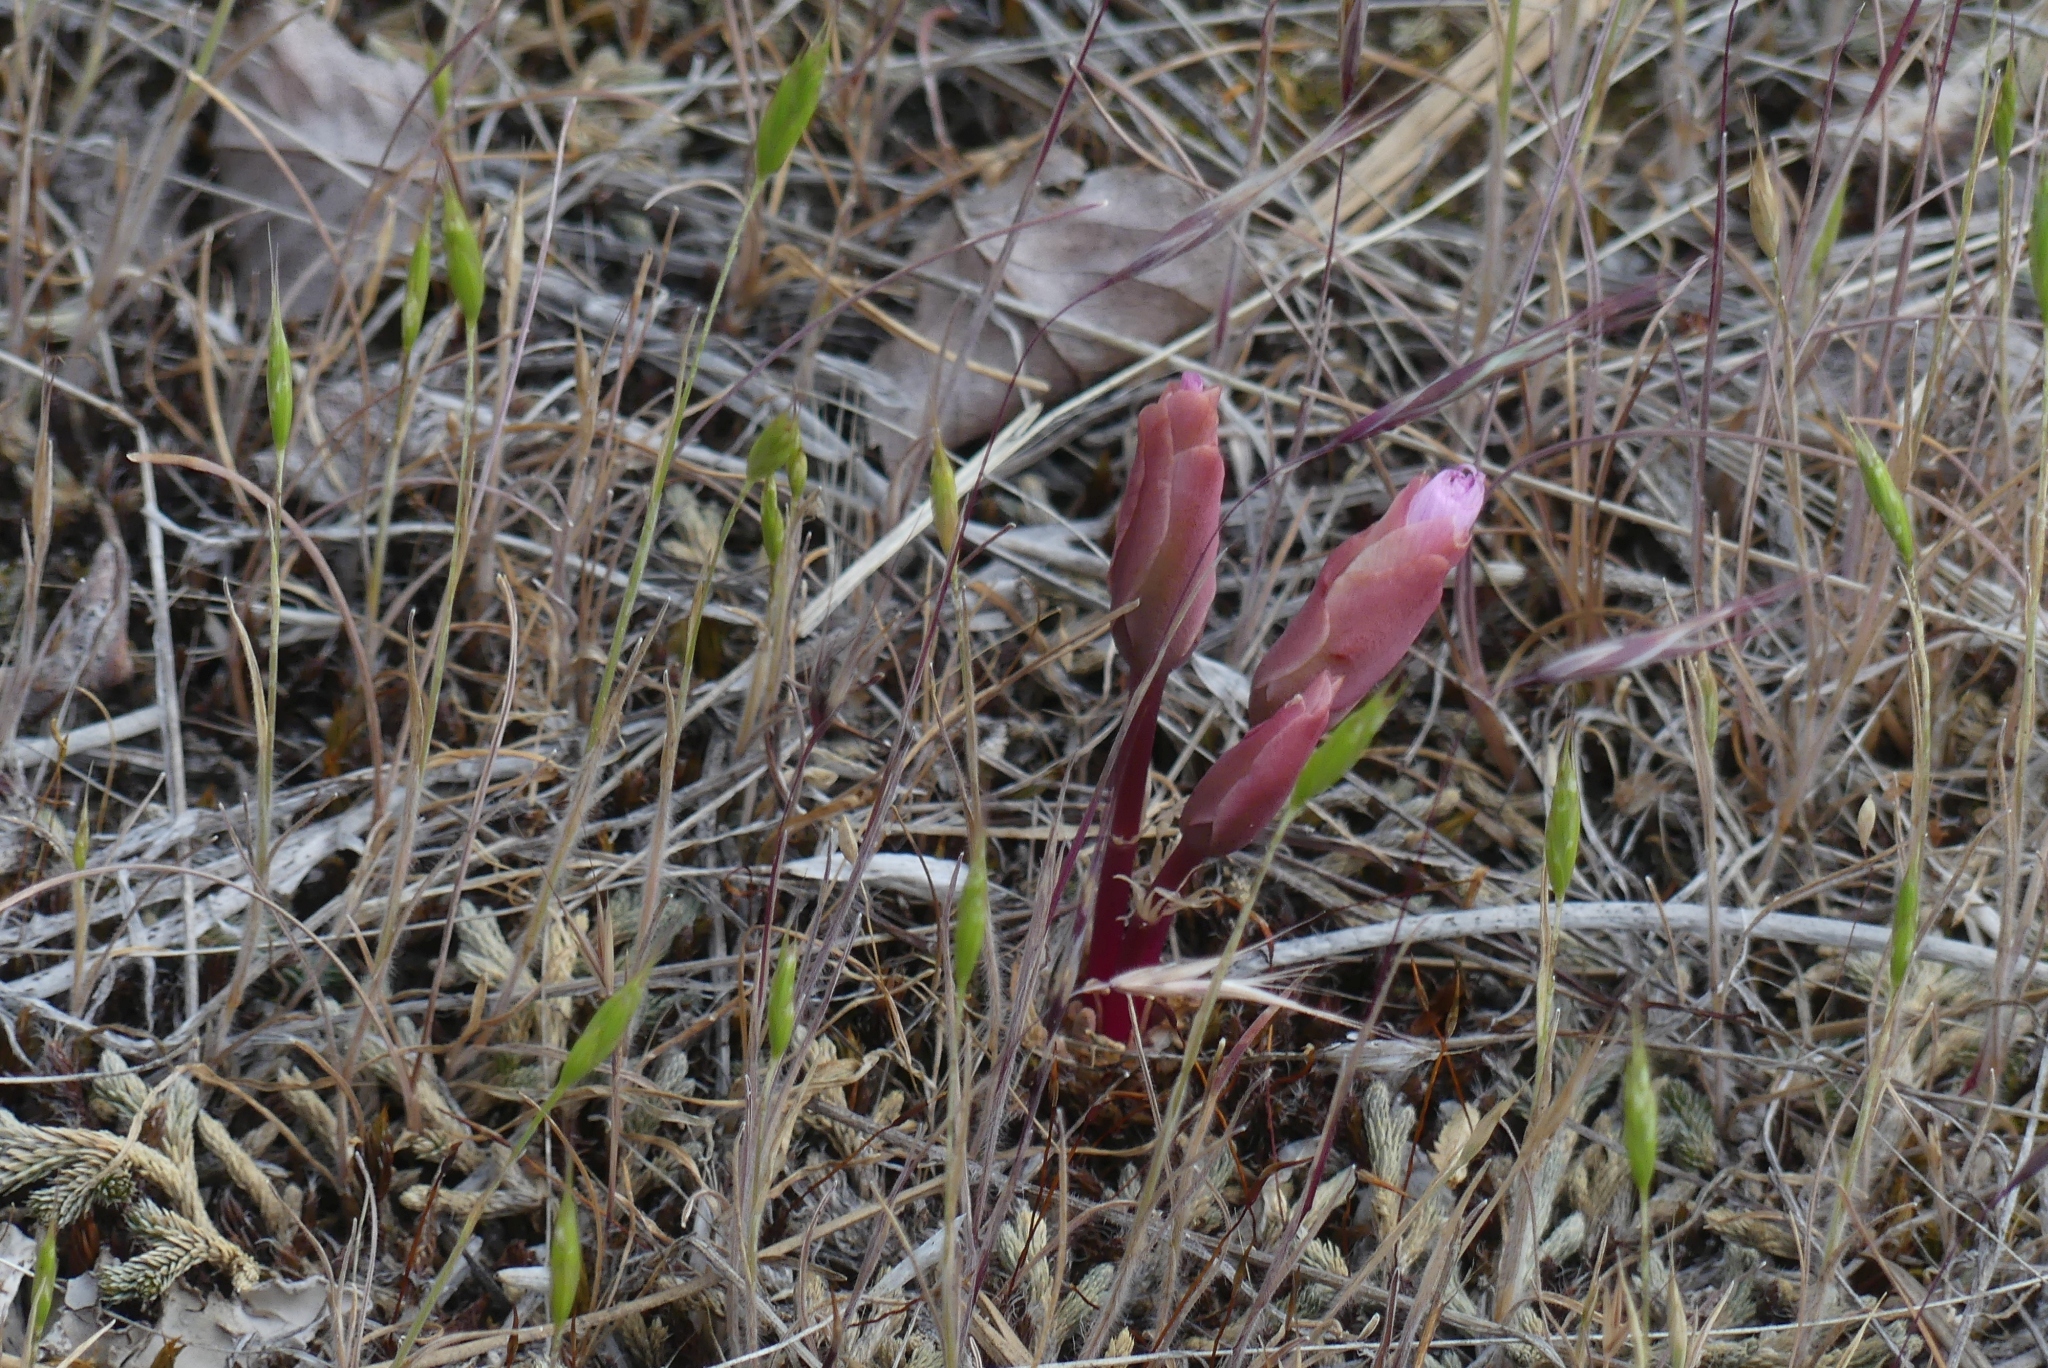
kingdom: Plantae
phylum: Tracheophyta
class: Magnoliopsida
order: Caryophyllales
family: Montiaceae
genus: Lewisia
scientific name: Lewisia rediviva
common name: Bitter-root
